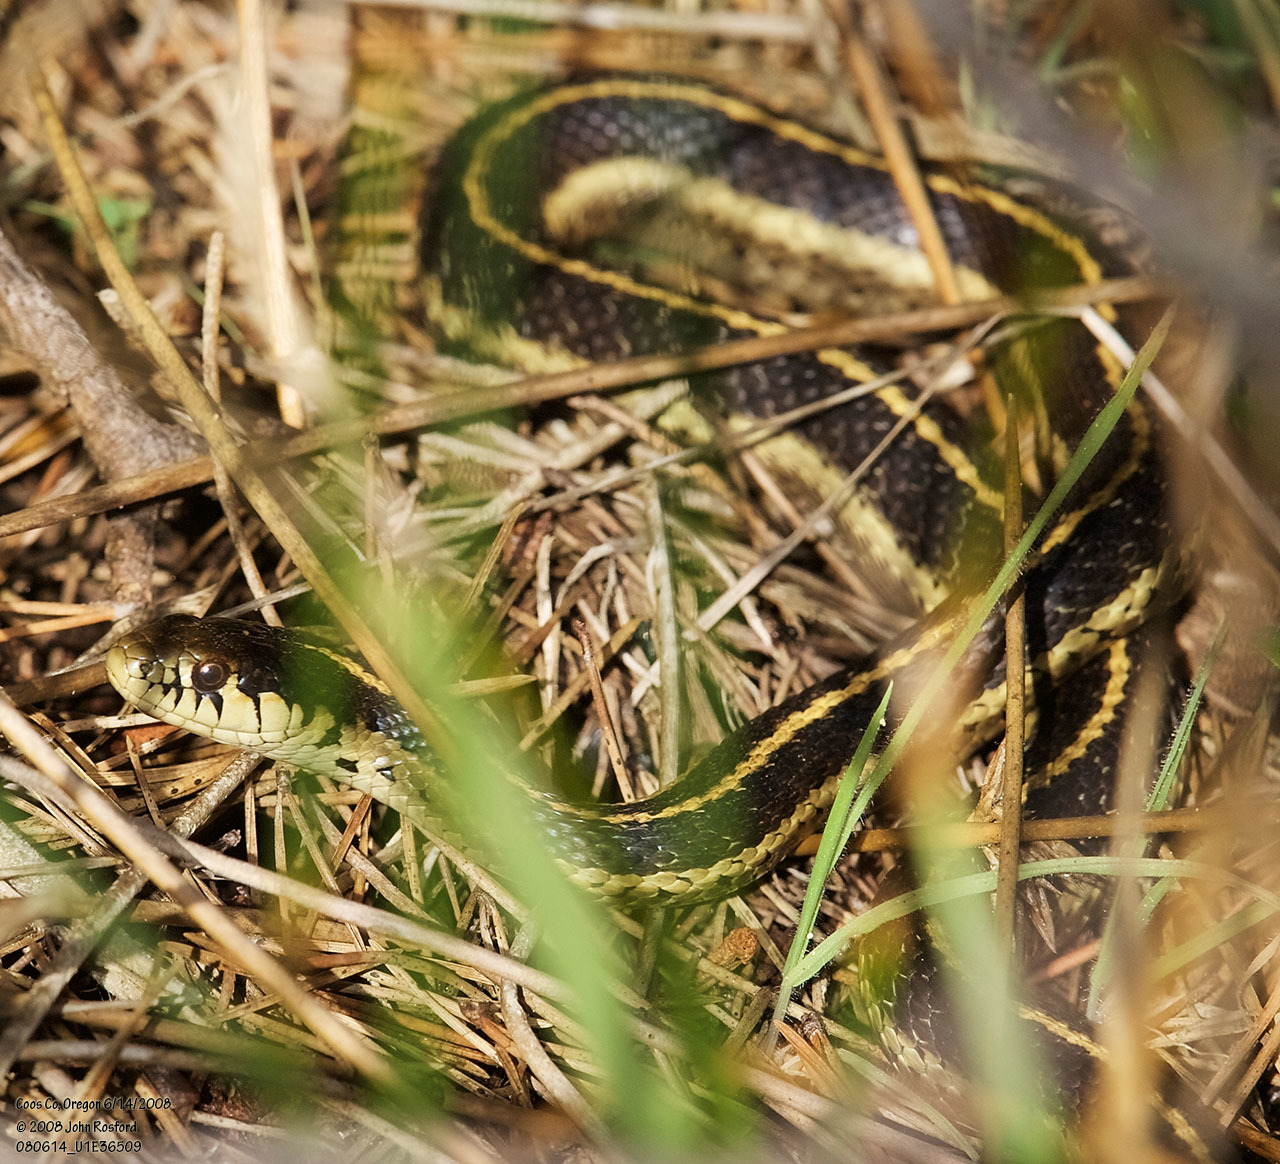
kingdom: Animalia
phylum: Chordata
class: Squamata
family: Colubridae
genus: Thamnophis
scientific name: Thamnophis elegans
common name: Western terrestrial garter snake
